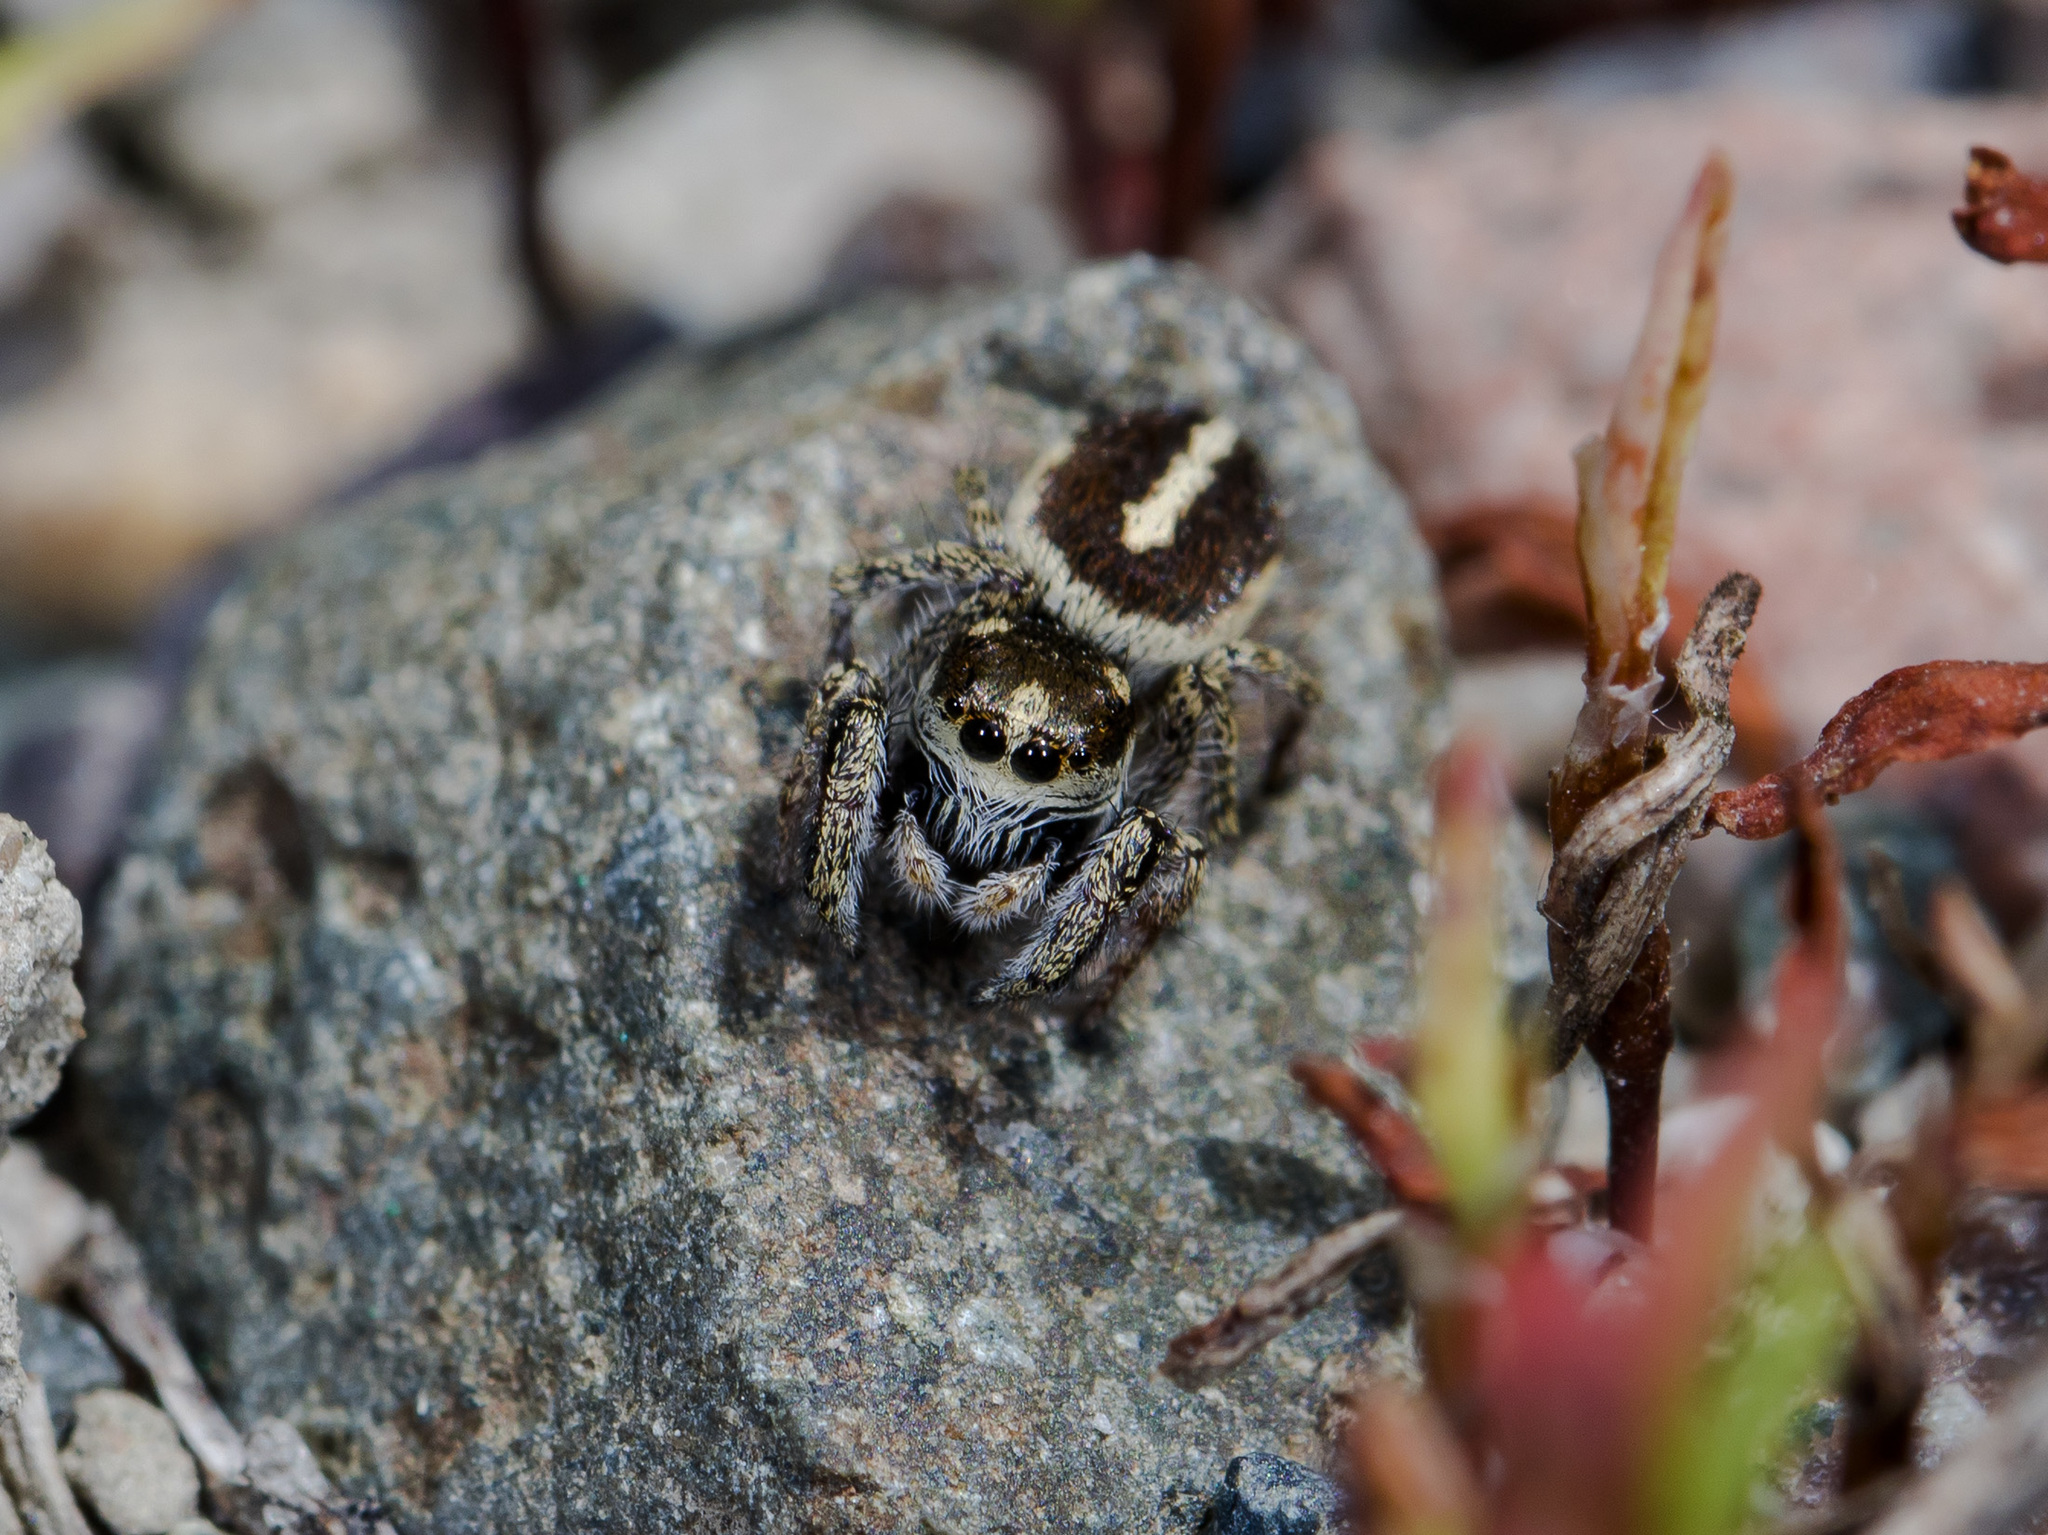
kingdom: Animalia
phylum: Arthropoda
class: Arachnida
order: Araneae
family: Salticidae
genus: Pellenes
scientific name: Pellenes allegrii
